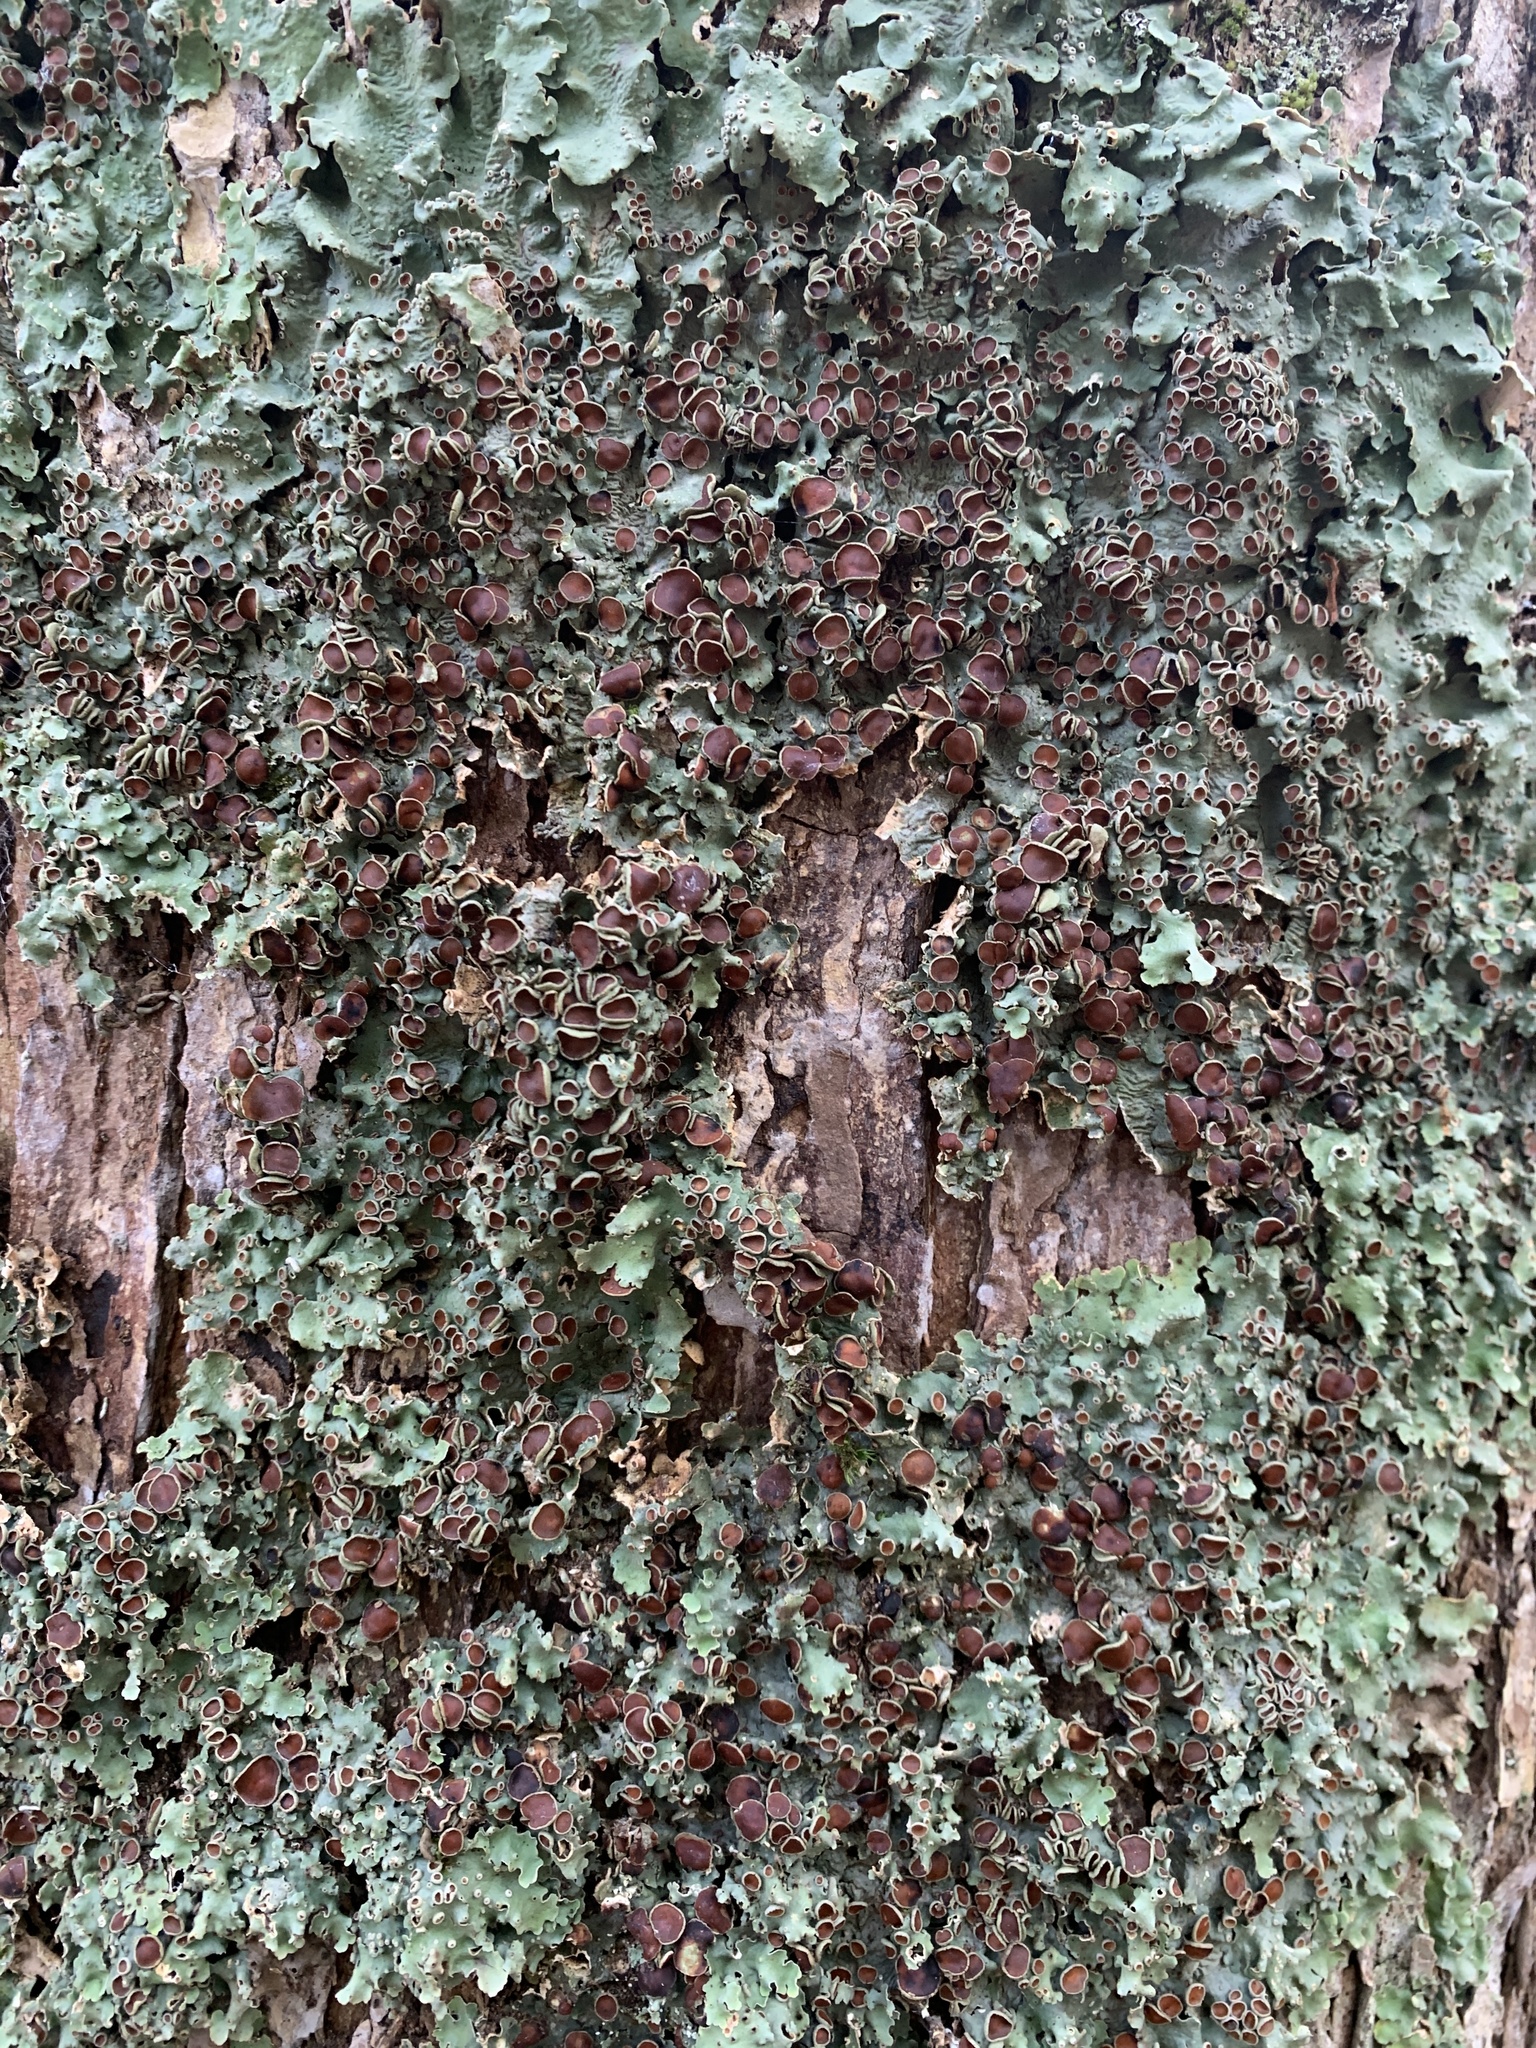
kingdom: Fungi
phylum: Ascomycota
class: Lecanoromycetes
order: Peltigerales
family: Lobariaceae
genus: Ricasolia
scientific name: Ricasolia quercizans
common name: Smooth lungwort
